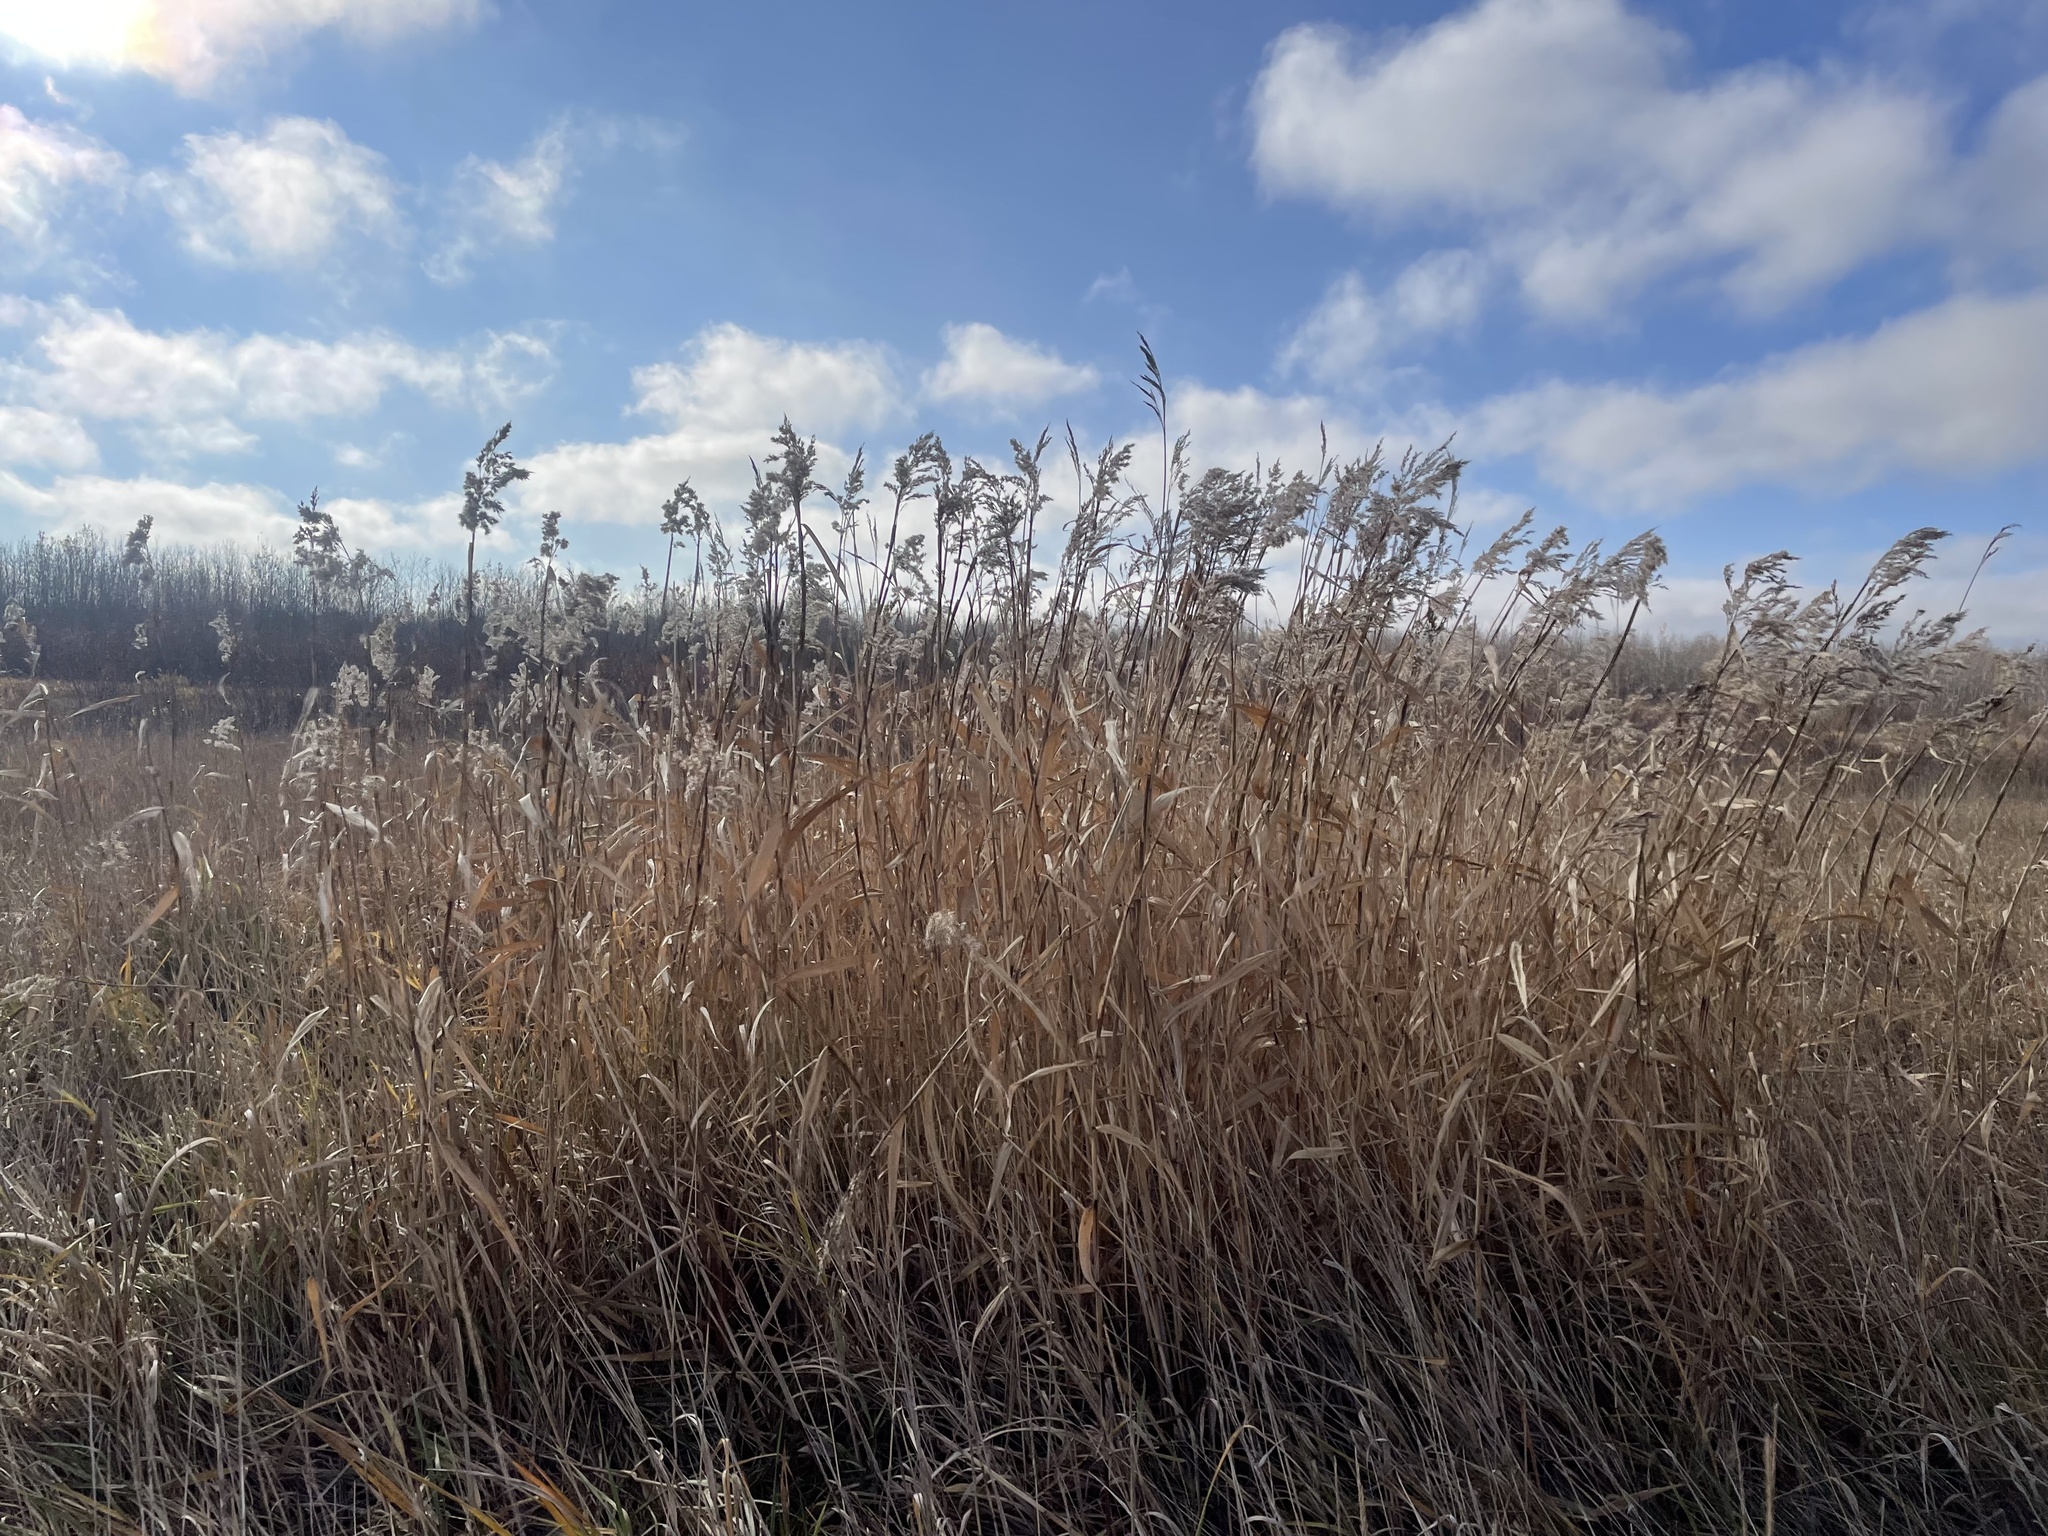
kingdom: Plantae
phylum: Tracheophyta
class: Liliopsida
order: Poales
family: Poaceae
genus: Phragmites
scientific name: Phragmites australis
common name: Common reed
